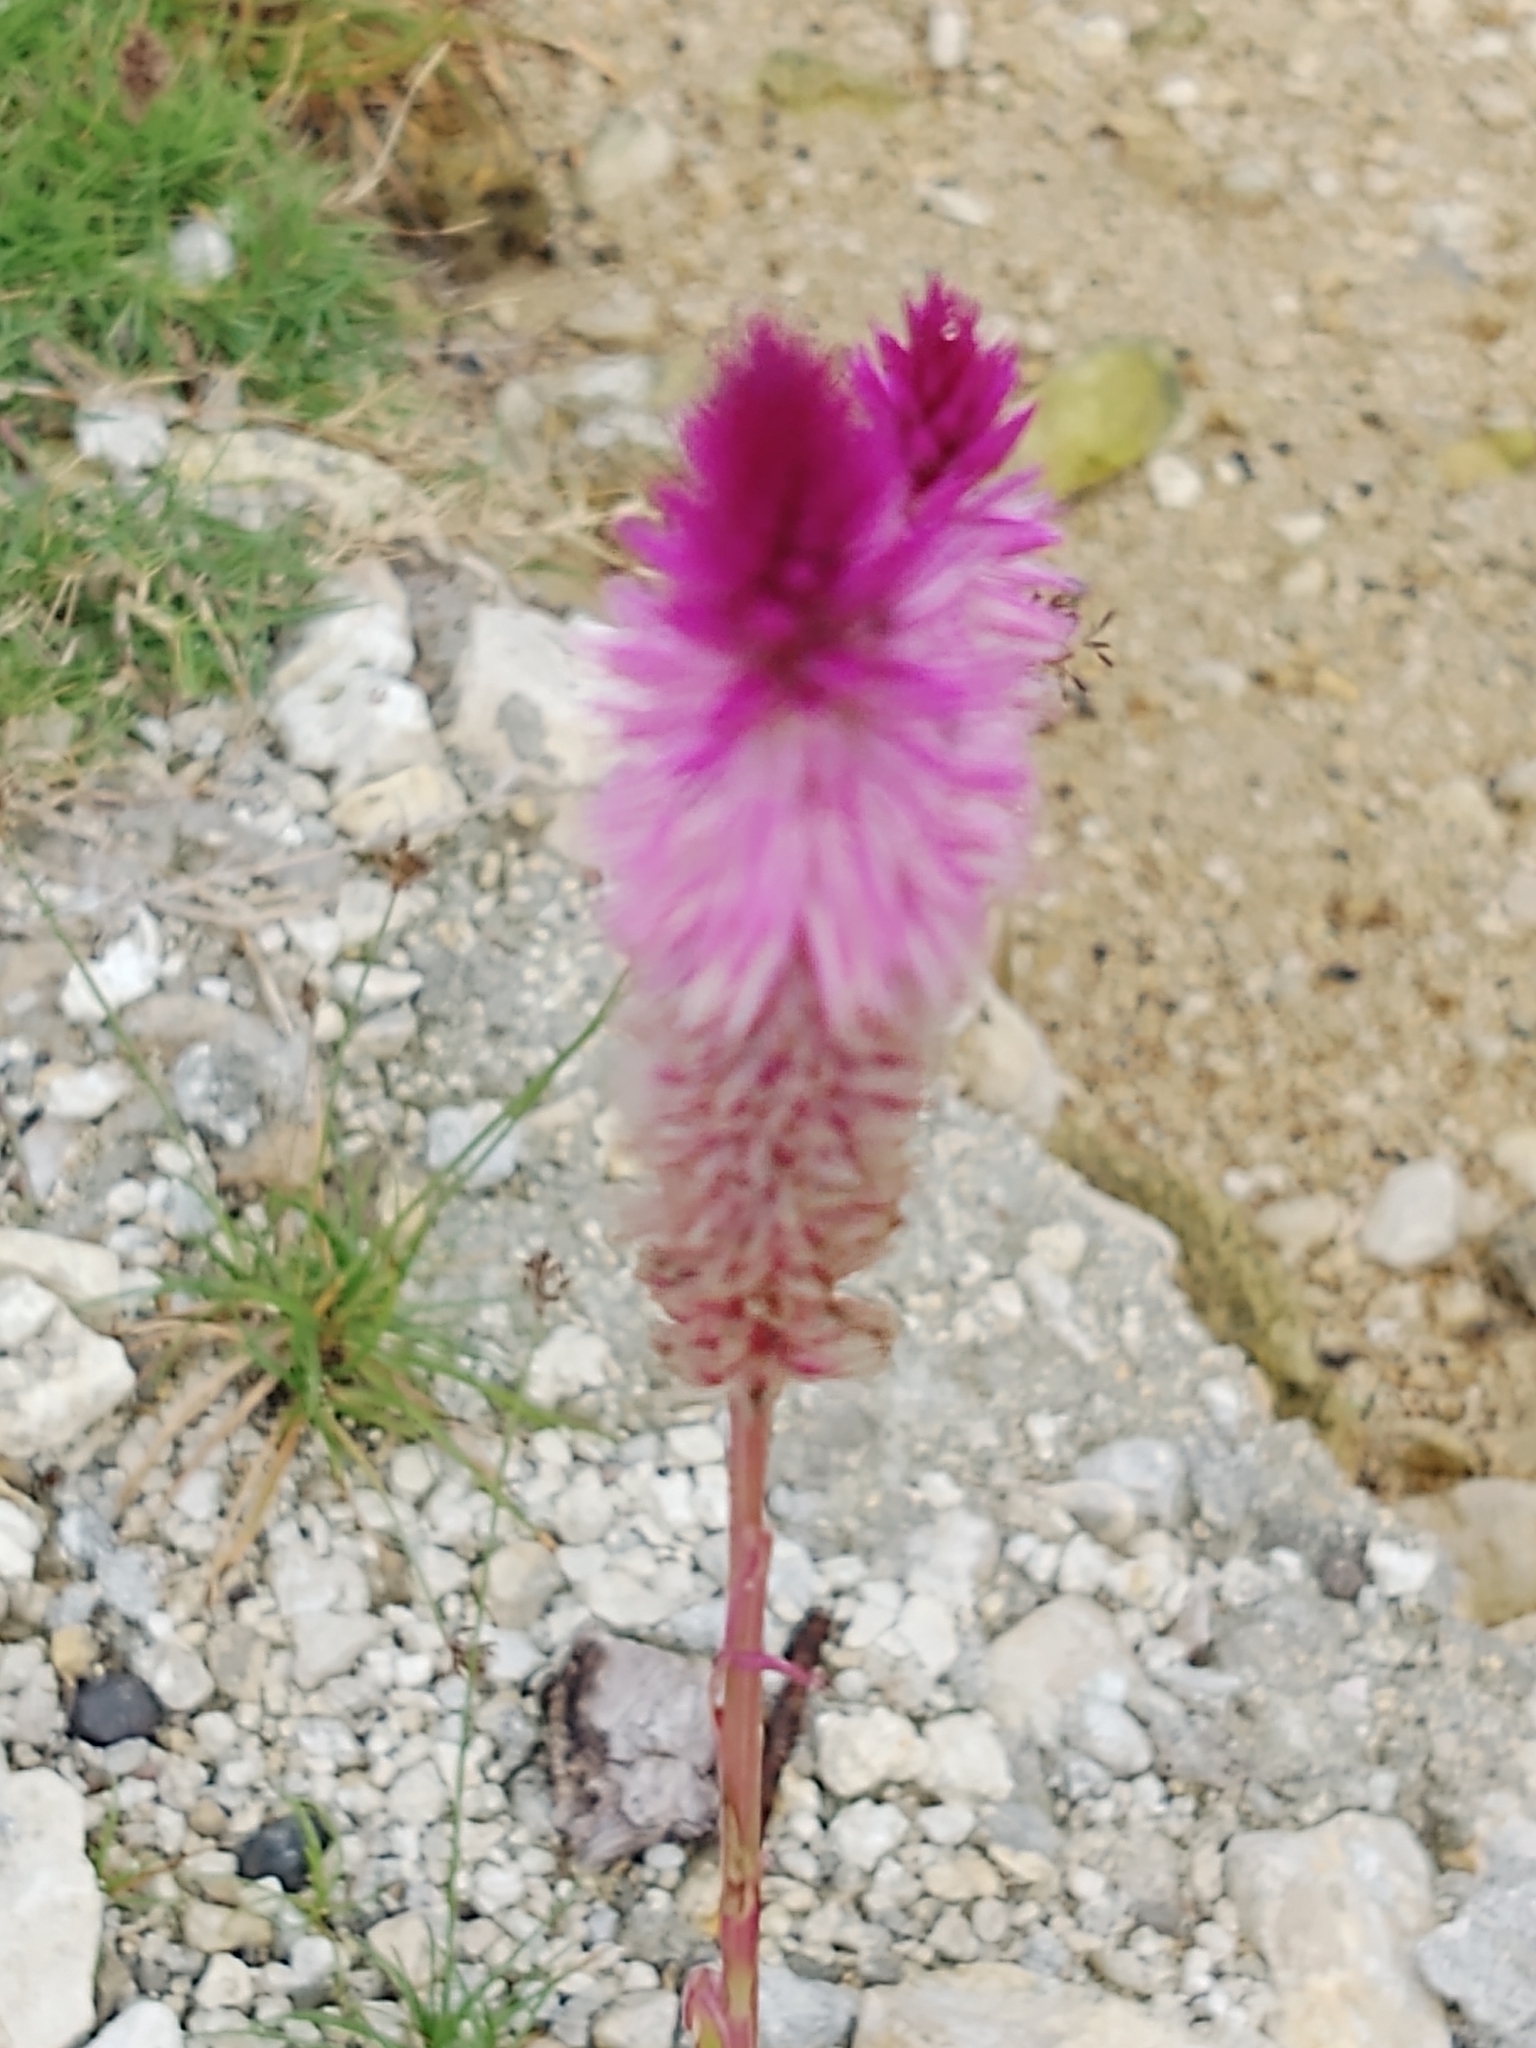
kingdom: Plantae
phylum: Tracheophyta
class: Magnoliopsida
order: Caryophyllales
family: Amaranthaceae
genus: Celosia
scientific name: Celosia spicata
